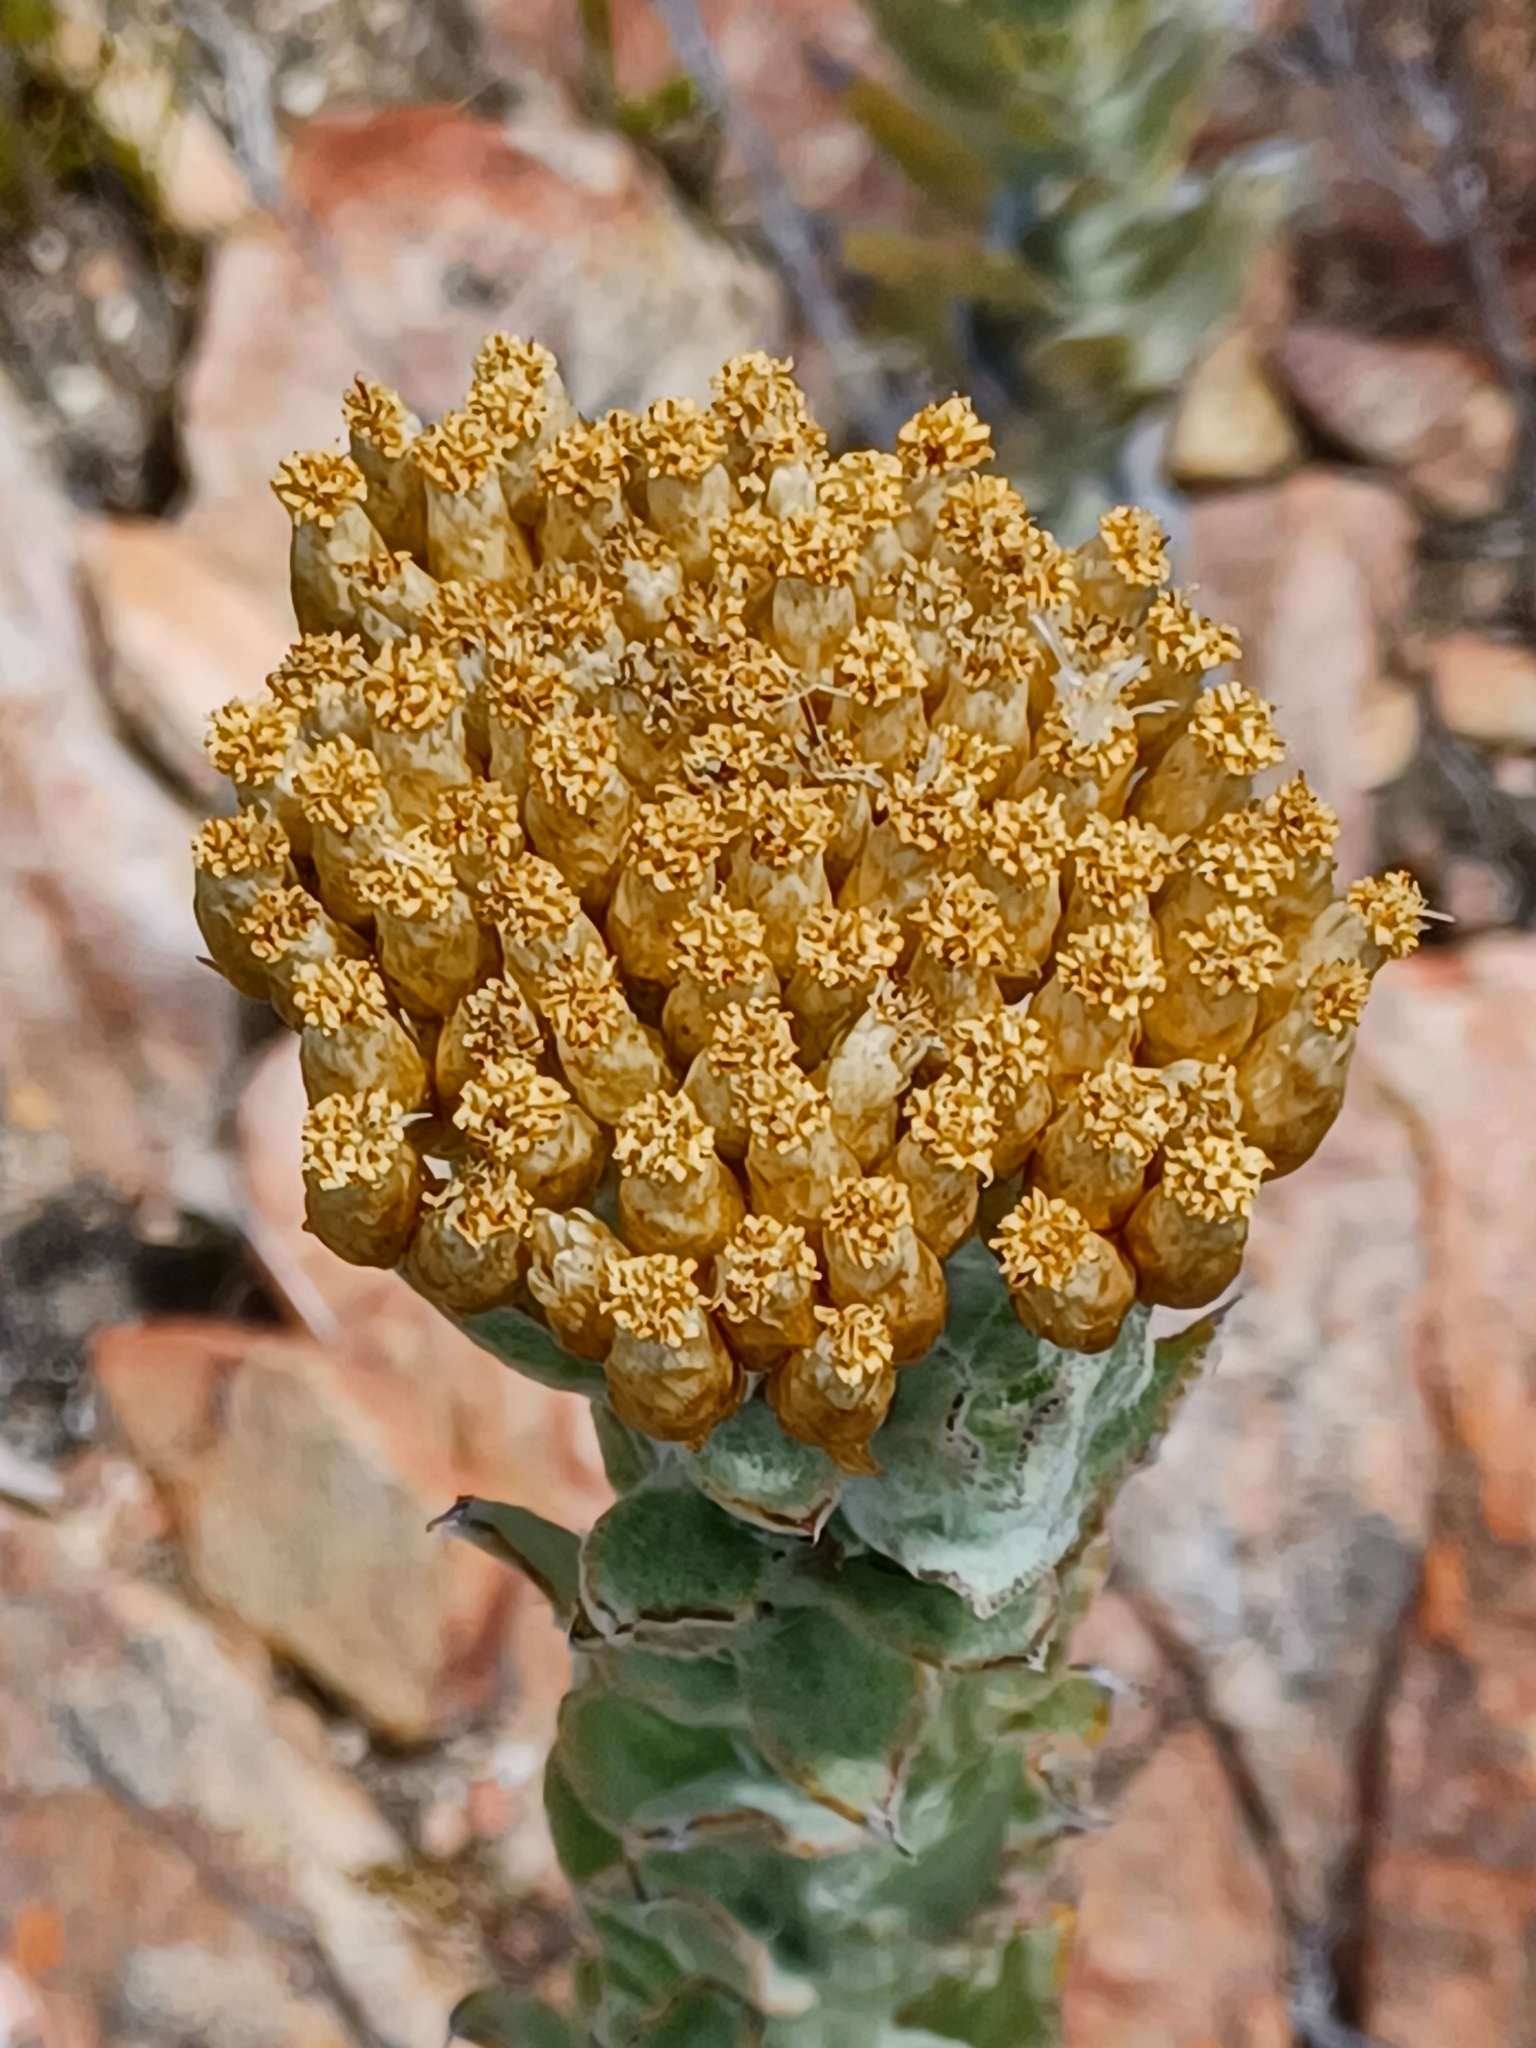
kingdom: Plantae
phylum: Tracheophyta
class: Magnoliopsida
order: Asterales
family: Asteraceae
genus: Syncarpha
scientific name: Syncarpha milleflora
